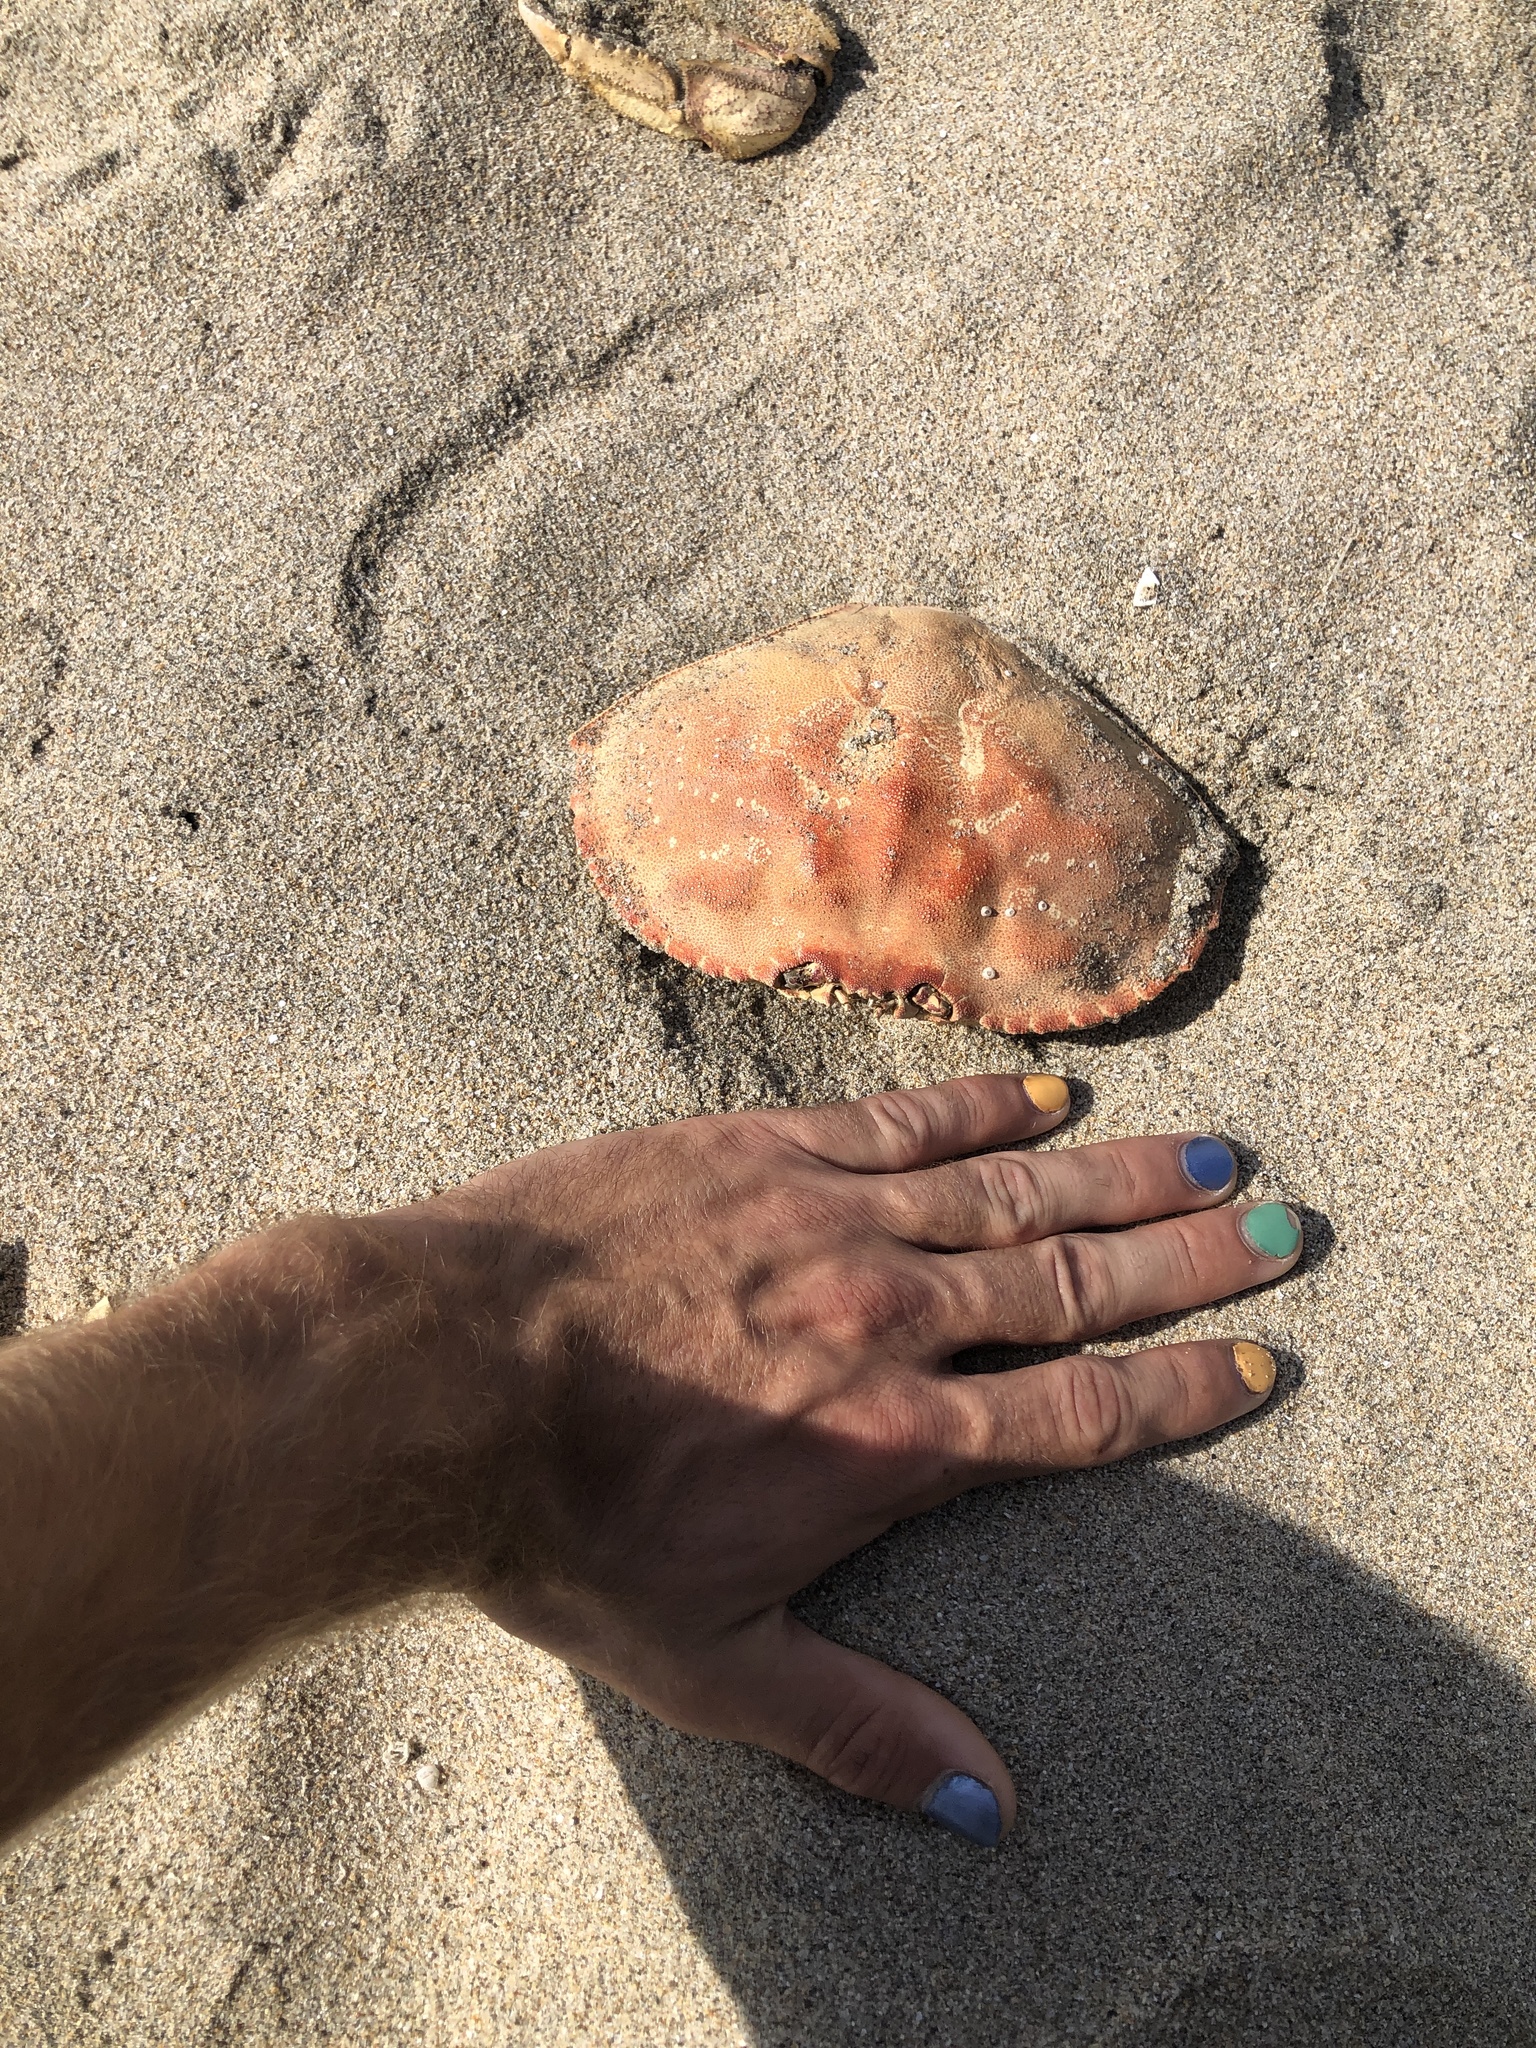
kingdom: Animalia
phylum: Arthropoda
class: Malacostraca
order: Decapoda
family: Cancridae
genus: Metacarcinus
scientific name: Metacarcinus magister
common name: Californian crab
